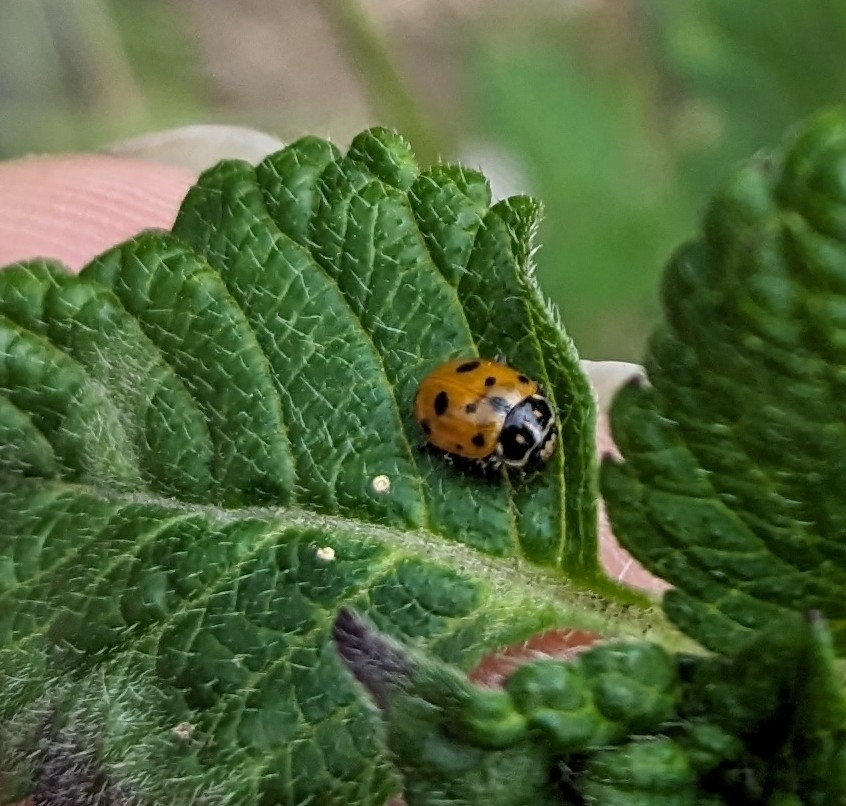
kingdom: Animalia
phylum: Arthropoda
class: Insecta
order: Coleoptera
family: Coccinellidae
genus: Hippodamia
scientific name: Hippodamia variegata
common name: Ladybird beetle
